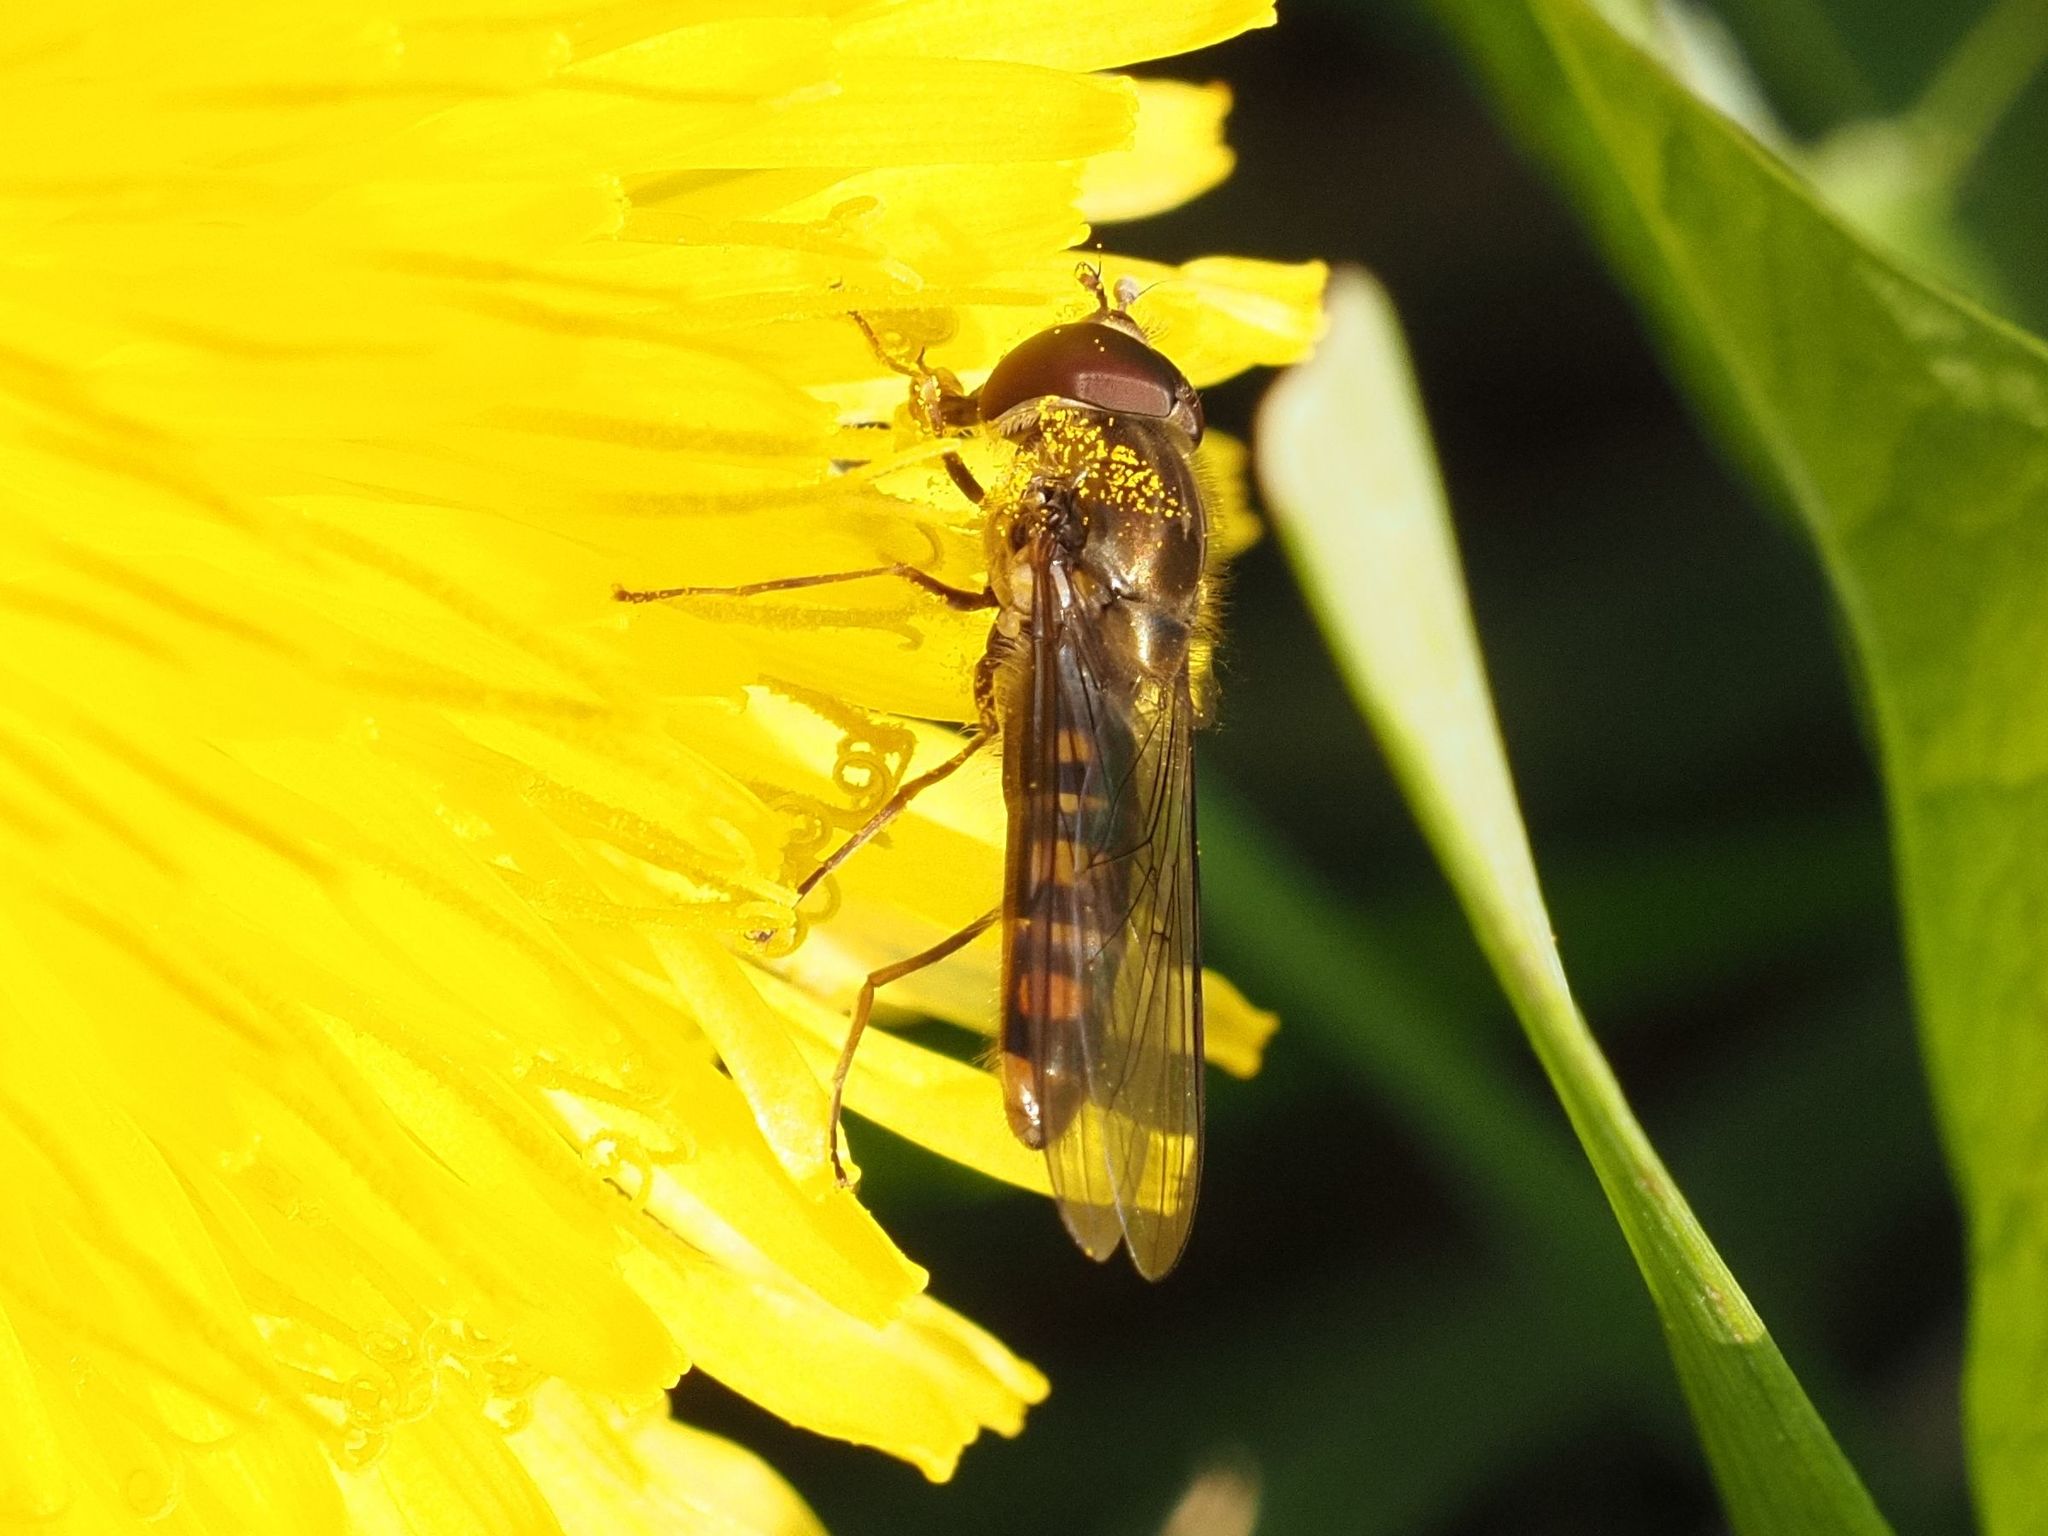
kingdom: Animalia
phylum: Arthropoda
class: Insecta
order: Diptera
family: Syrphidae
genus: Episyrphus
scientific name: Episyrphus balteatus
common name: Marmalade hoverfly
